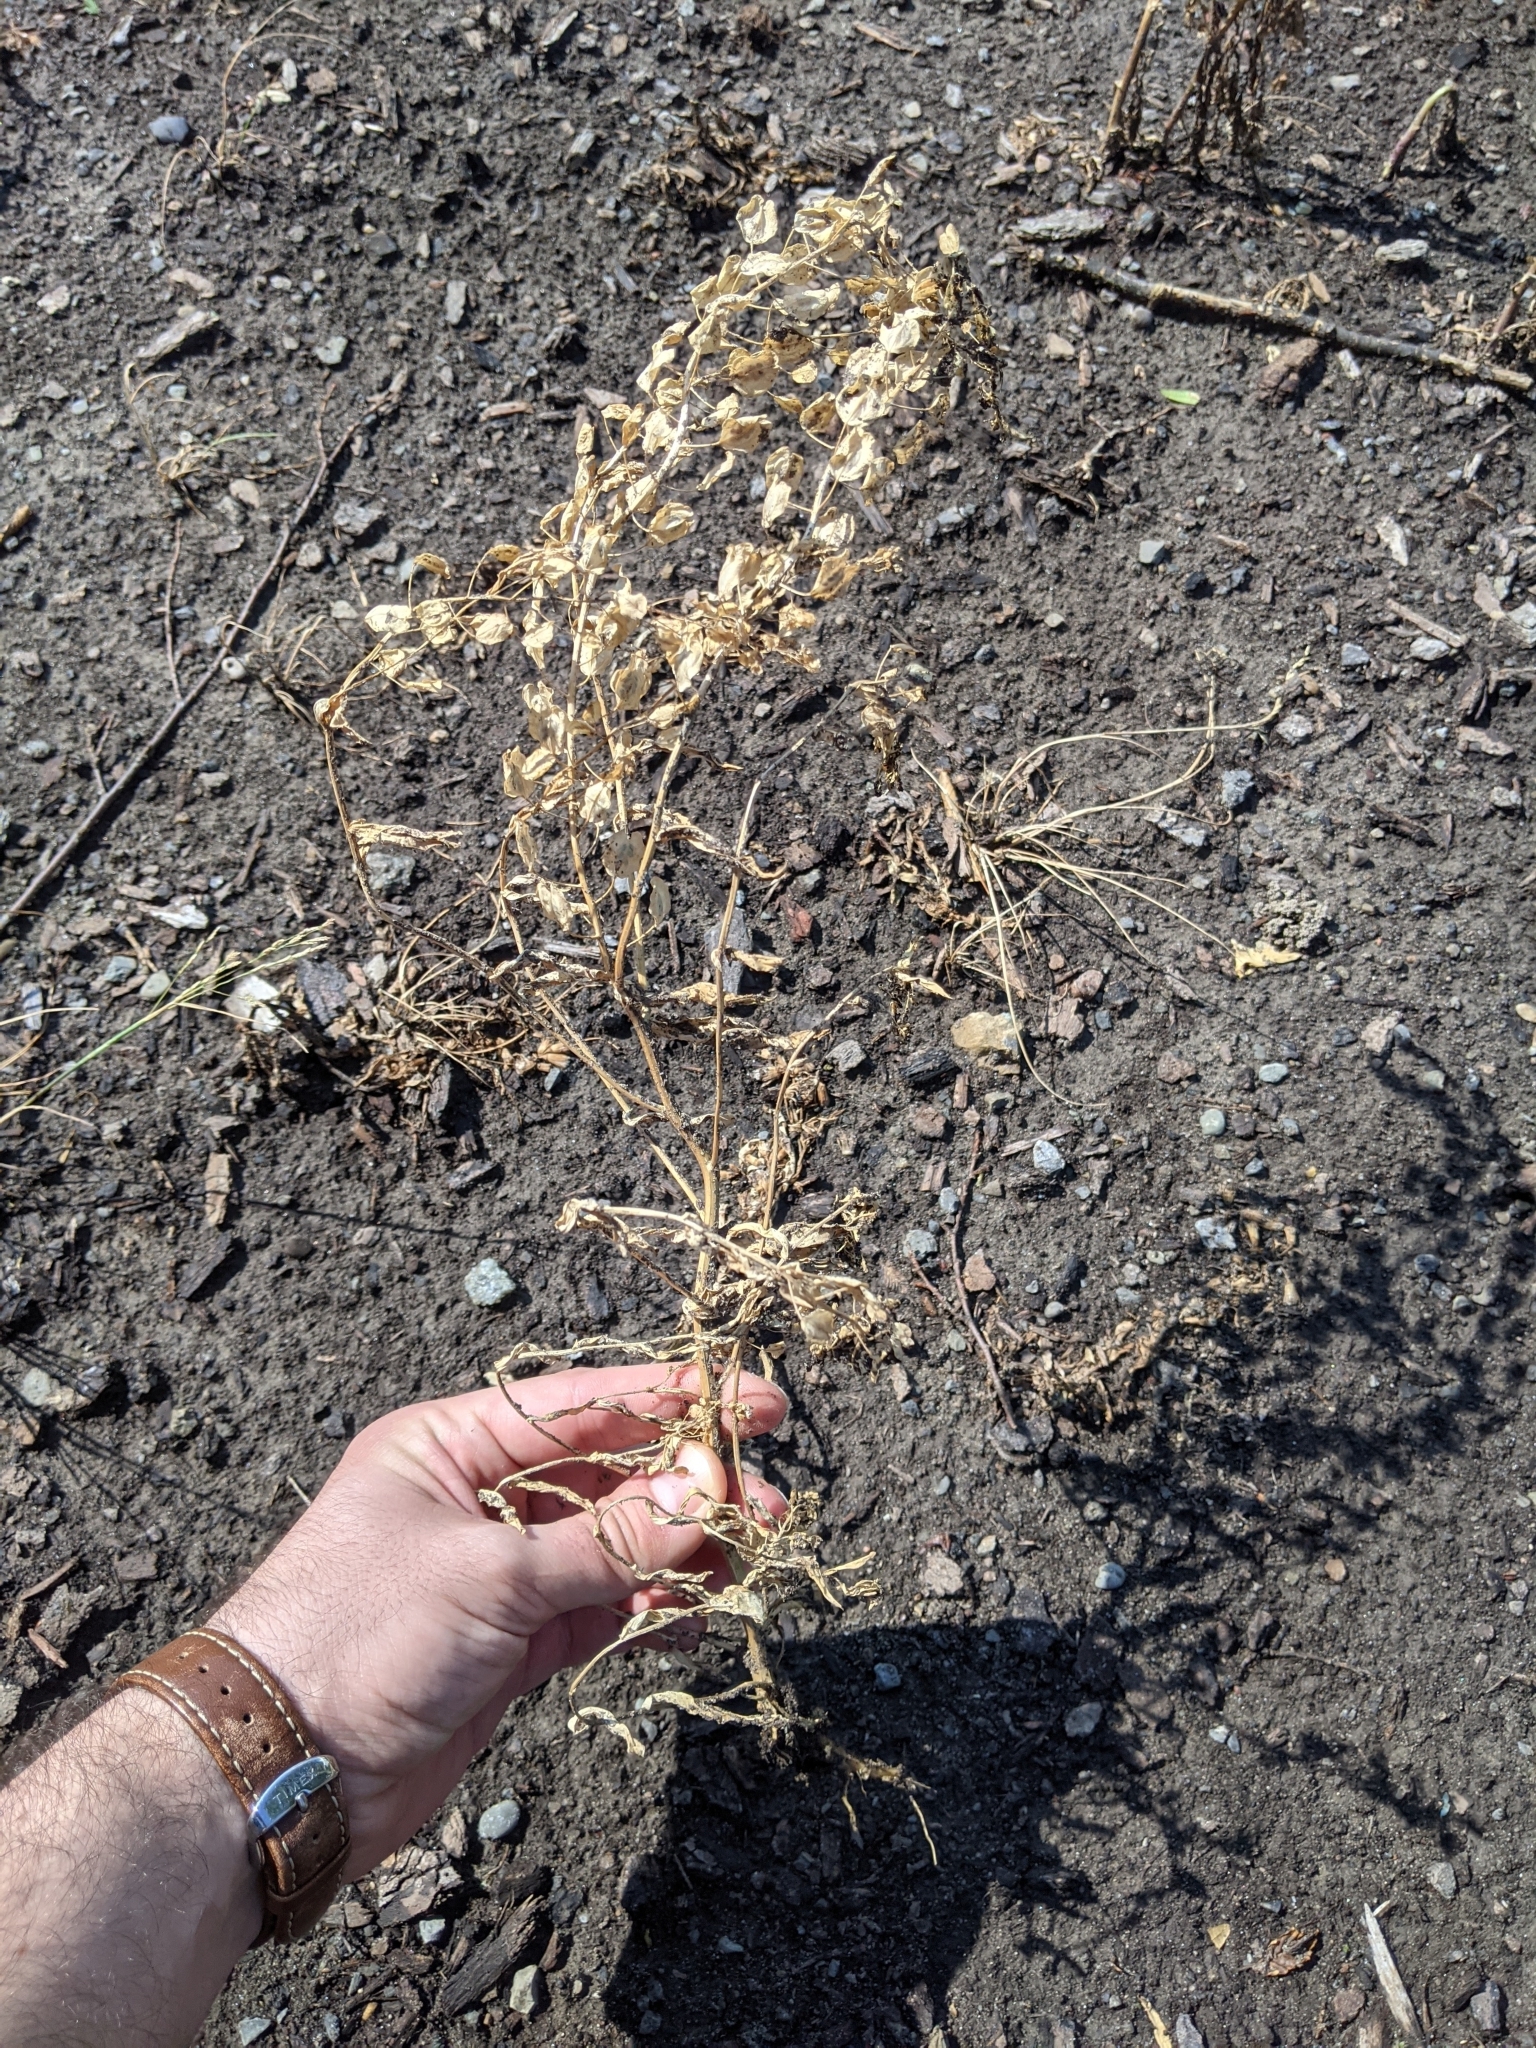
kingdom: Plantae
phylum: Tracheophyta
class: Magnoliopsida
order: Brassicales
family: Brassicaceae
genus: Thlaspi
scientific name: Thlaspi arvense
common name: Field pennycress
